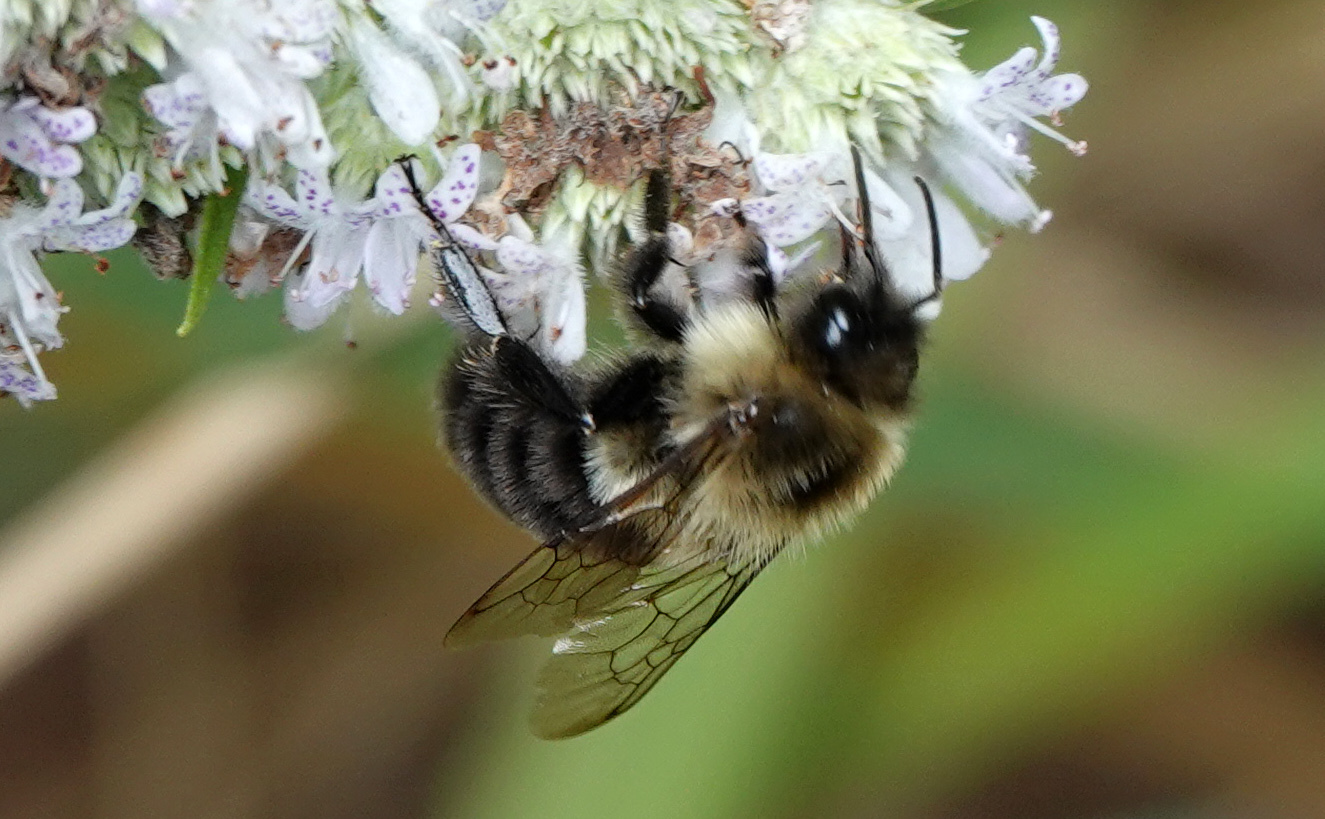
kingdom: Animalia
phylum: Arthropoda
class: Insecta
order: Hymenoptera
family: Apidae
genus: Bombus
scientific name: Bombus impatiens
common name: Common eastern bumble bee
